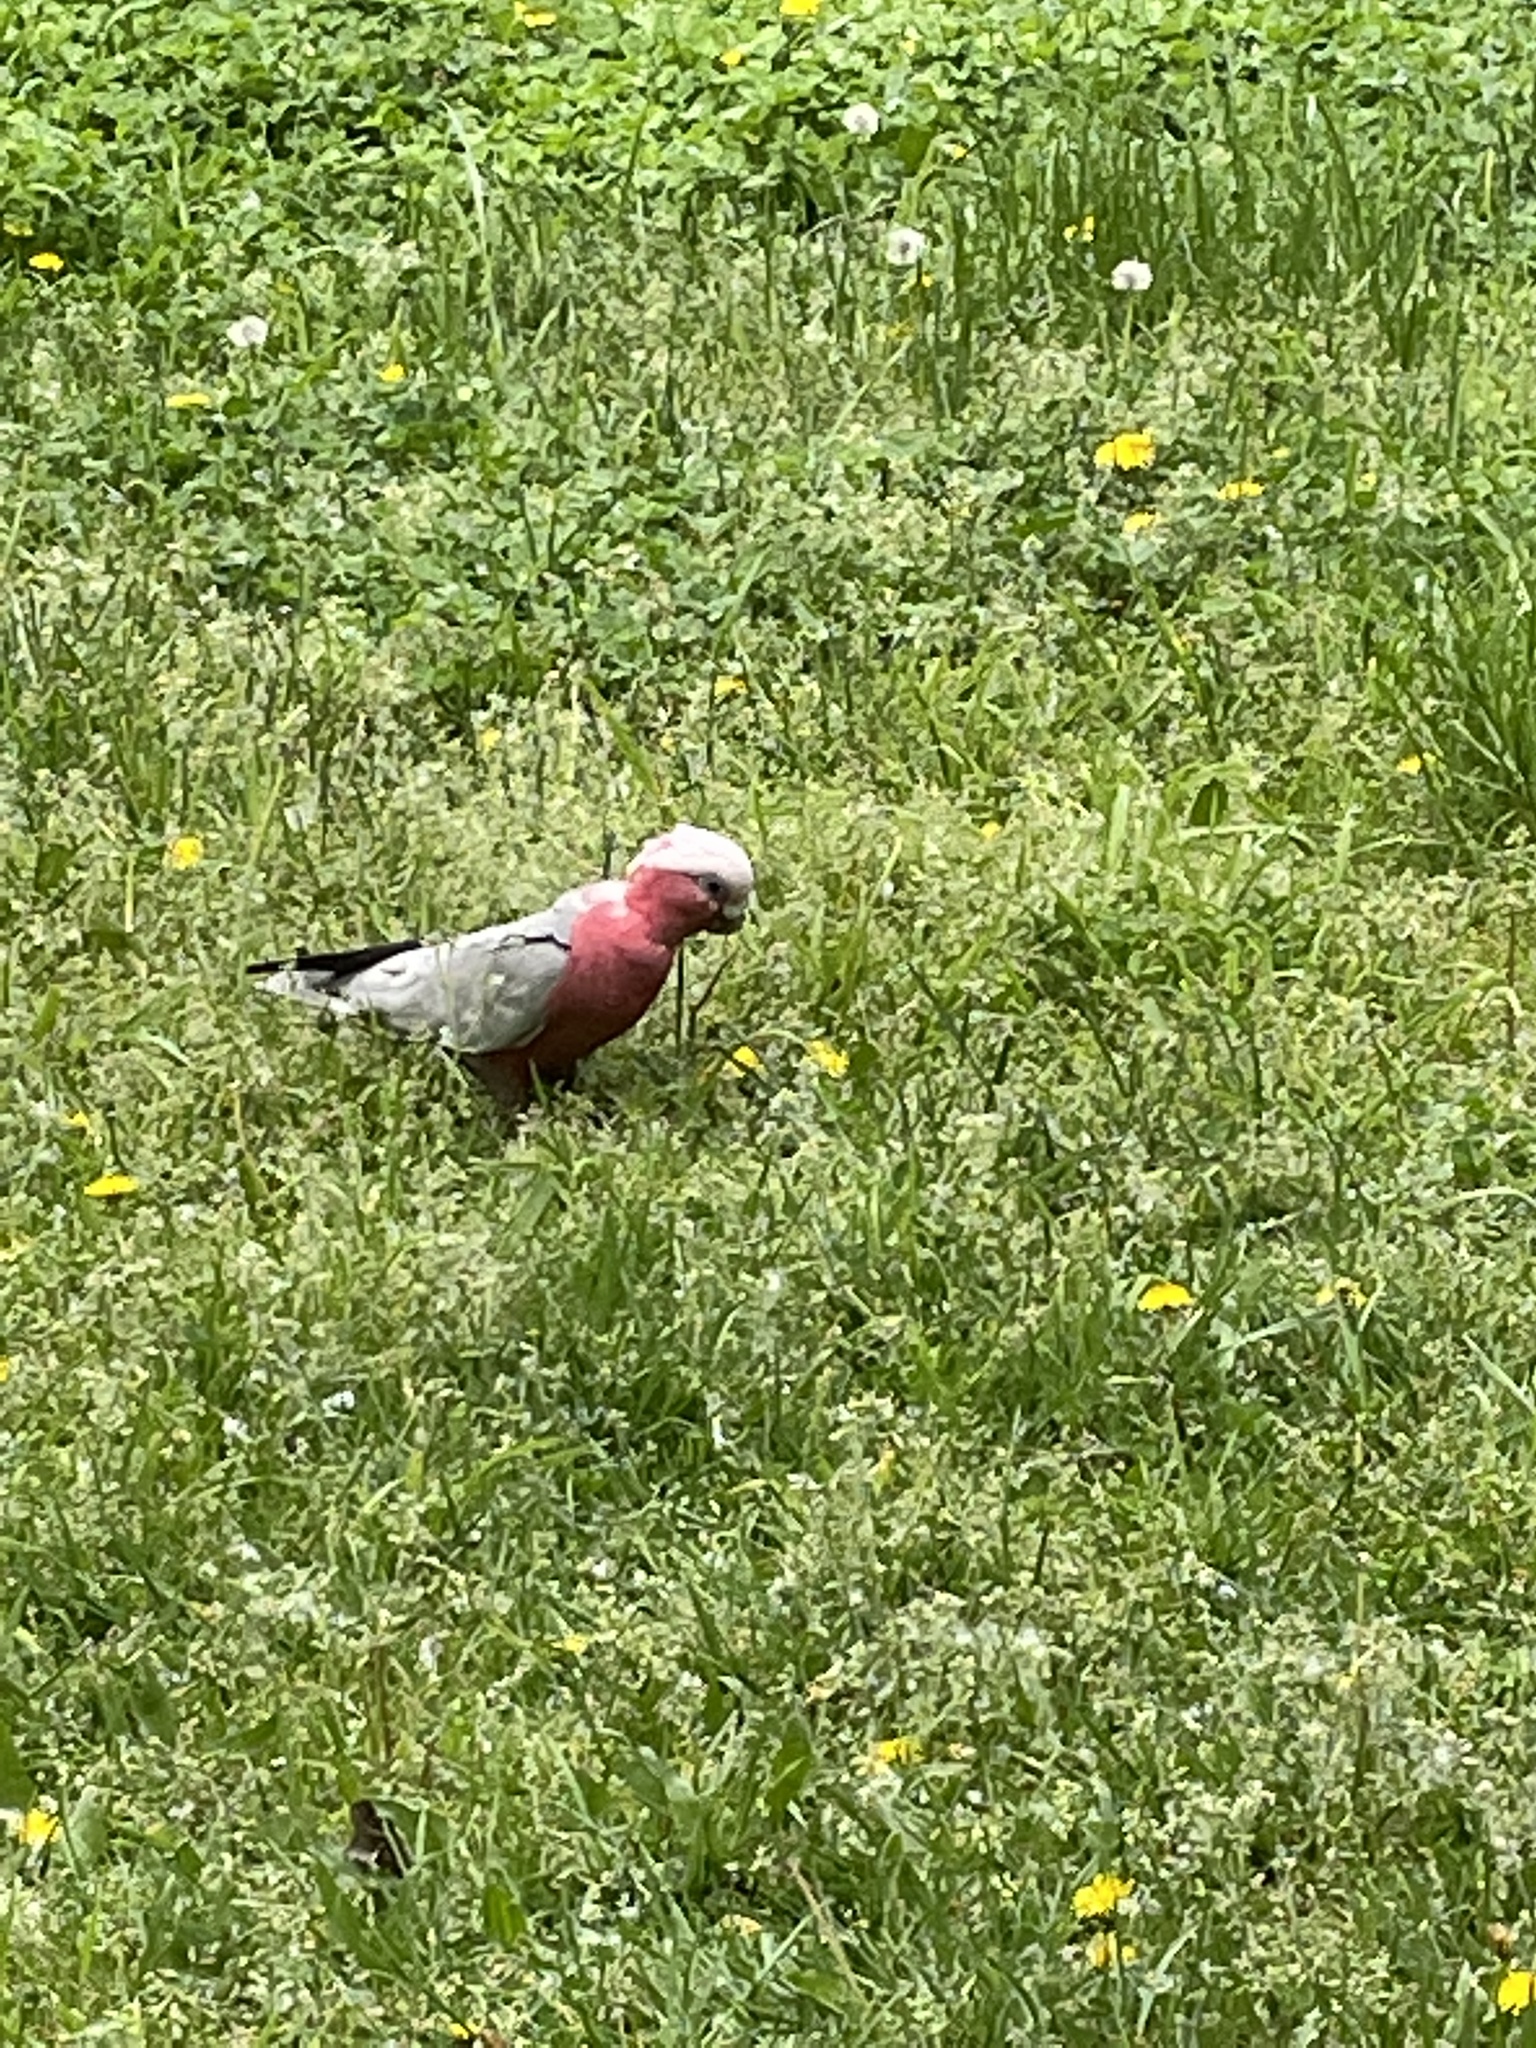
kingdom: Animalia
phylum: Chordata
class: Aves
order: Psittaciformes
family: Psittacidae
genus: Eolophus
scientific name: Eolophus roseicapilla
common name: Galah
